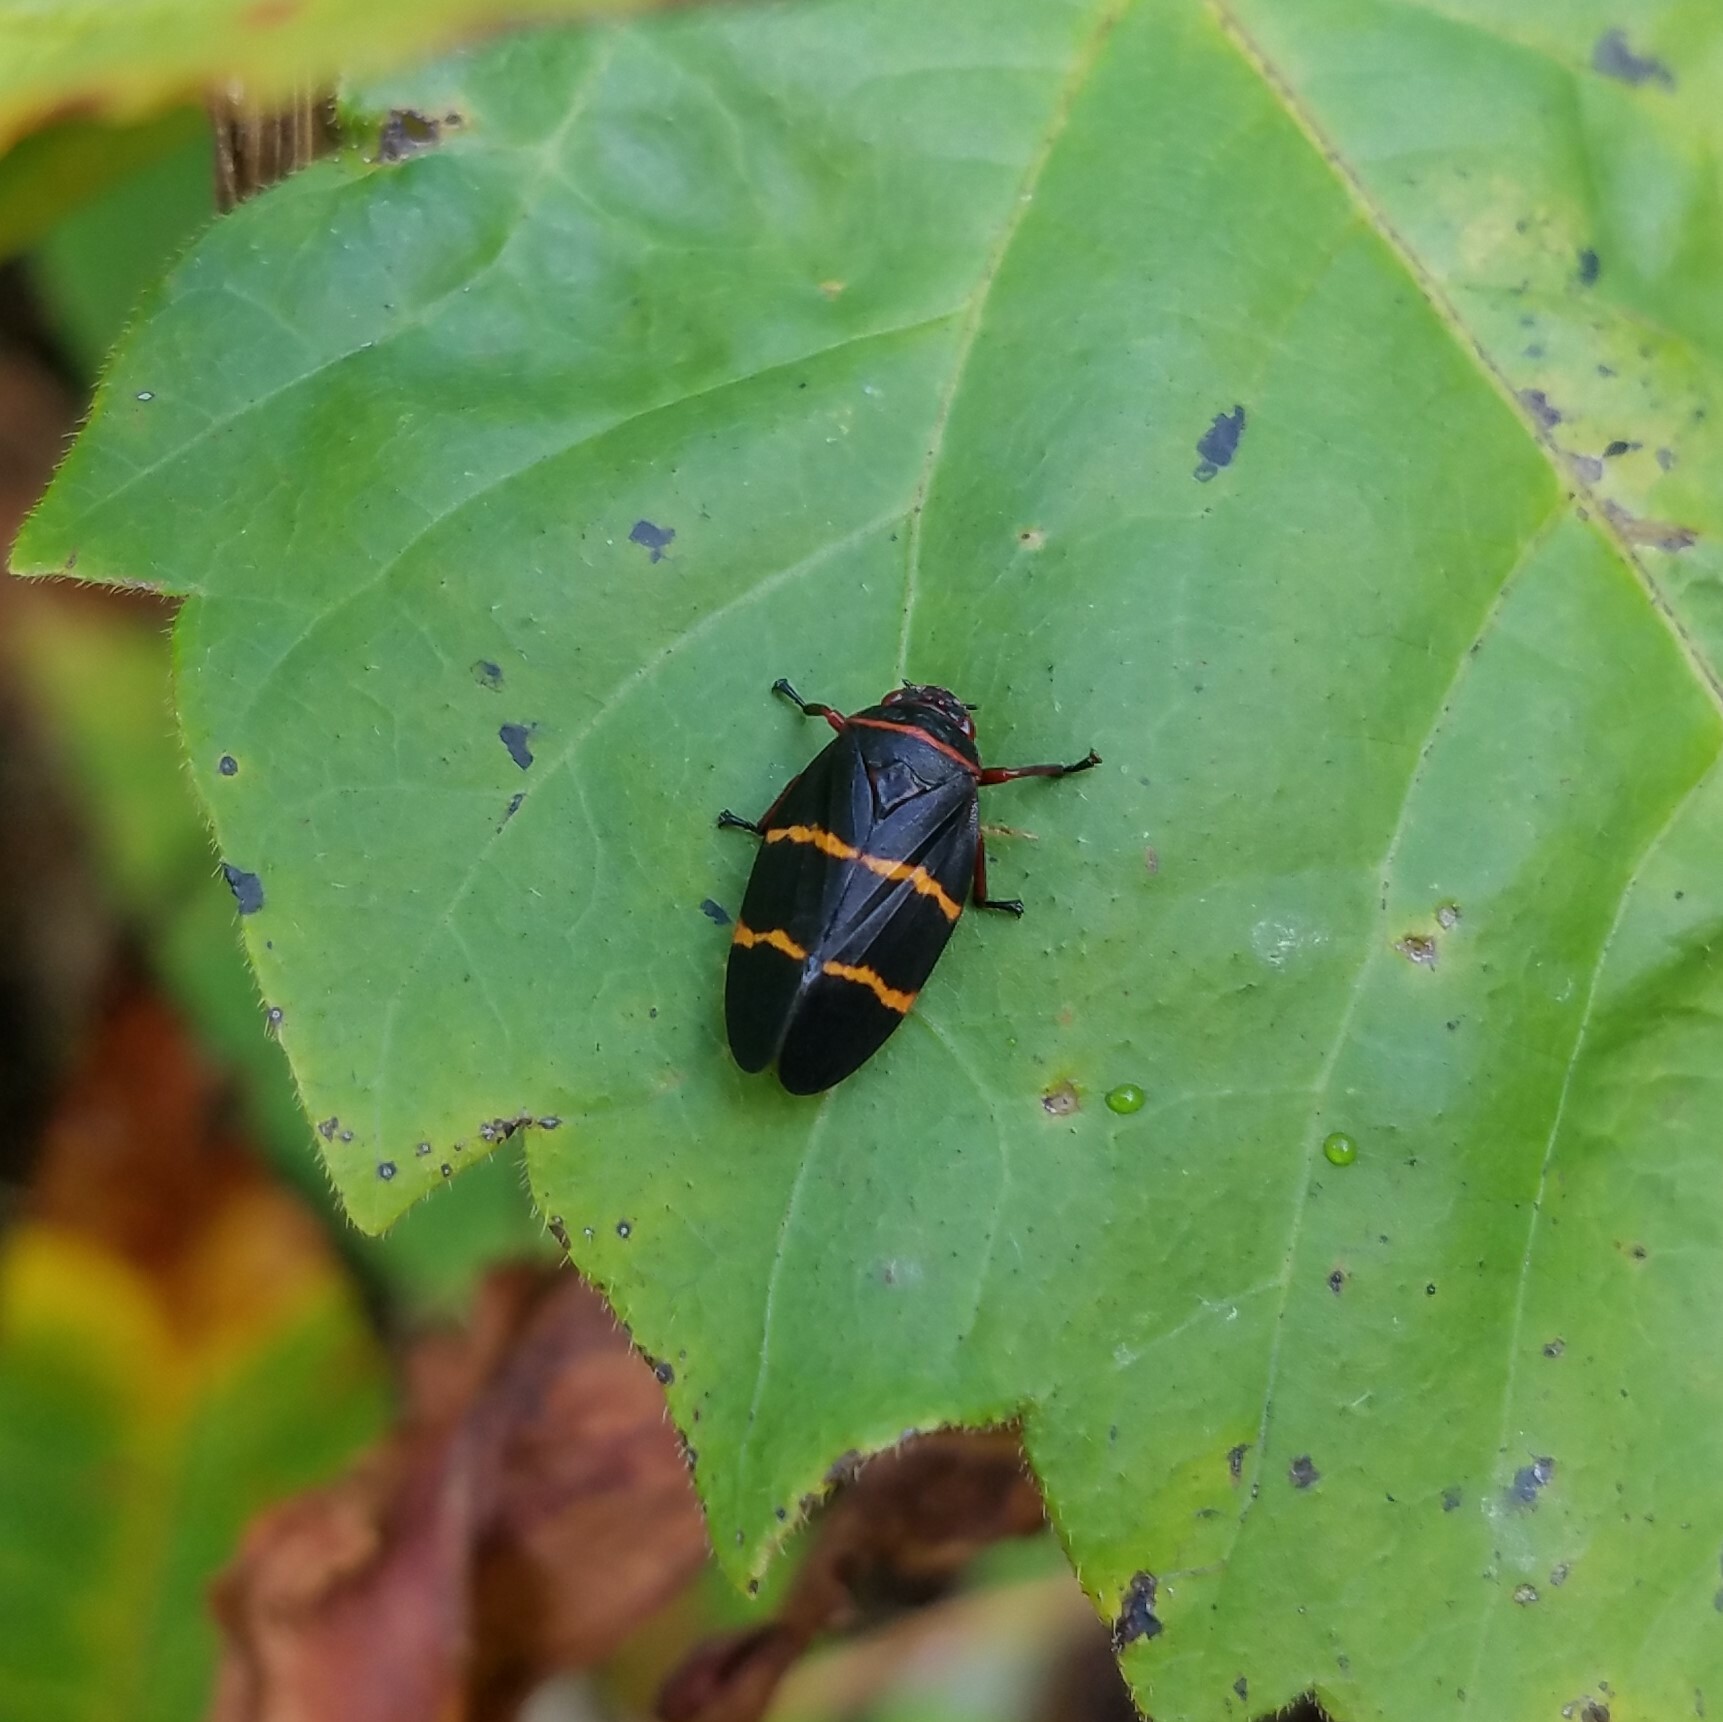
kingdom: Animalia
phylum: Arthropoda
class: Insecta
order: Hemiptera
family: Cercopidae
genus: Prosapia
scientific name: Prosapia bicincta
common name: Twolined spittlebug
